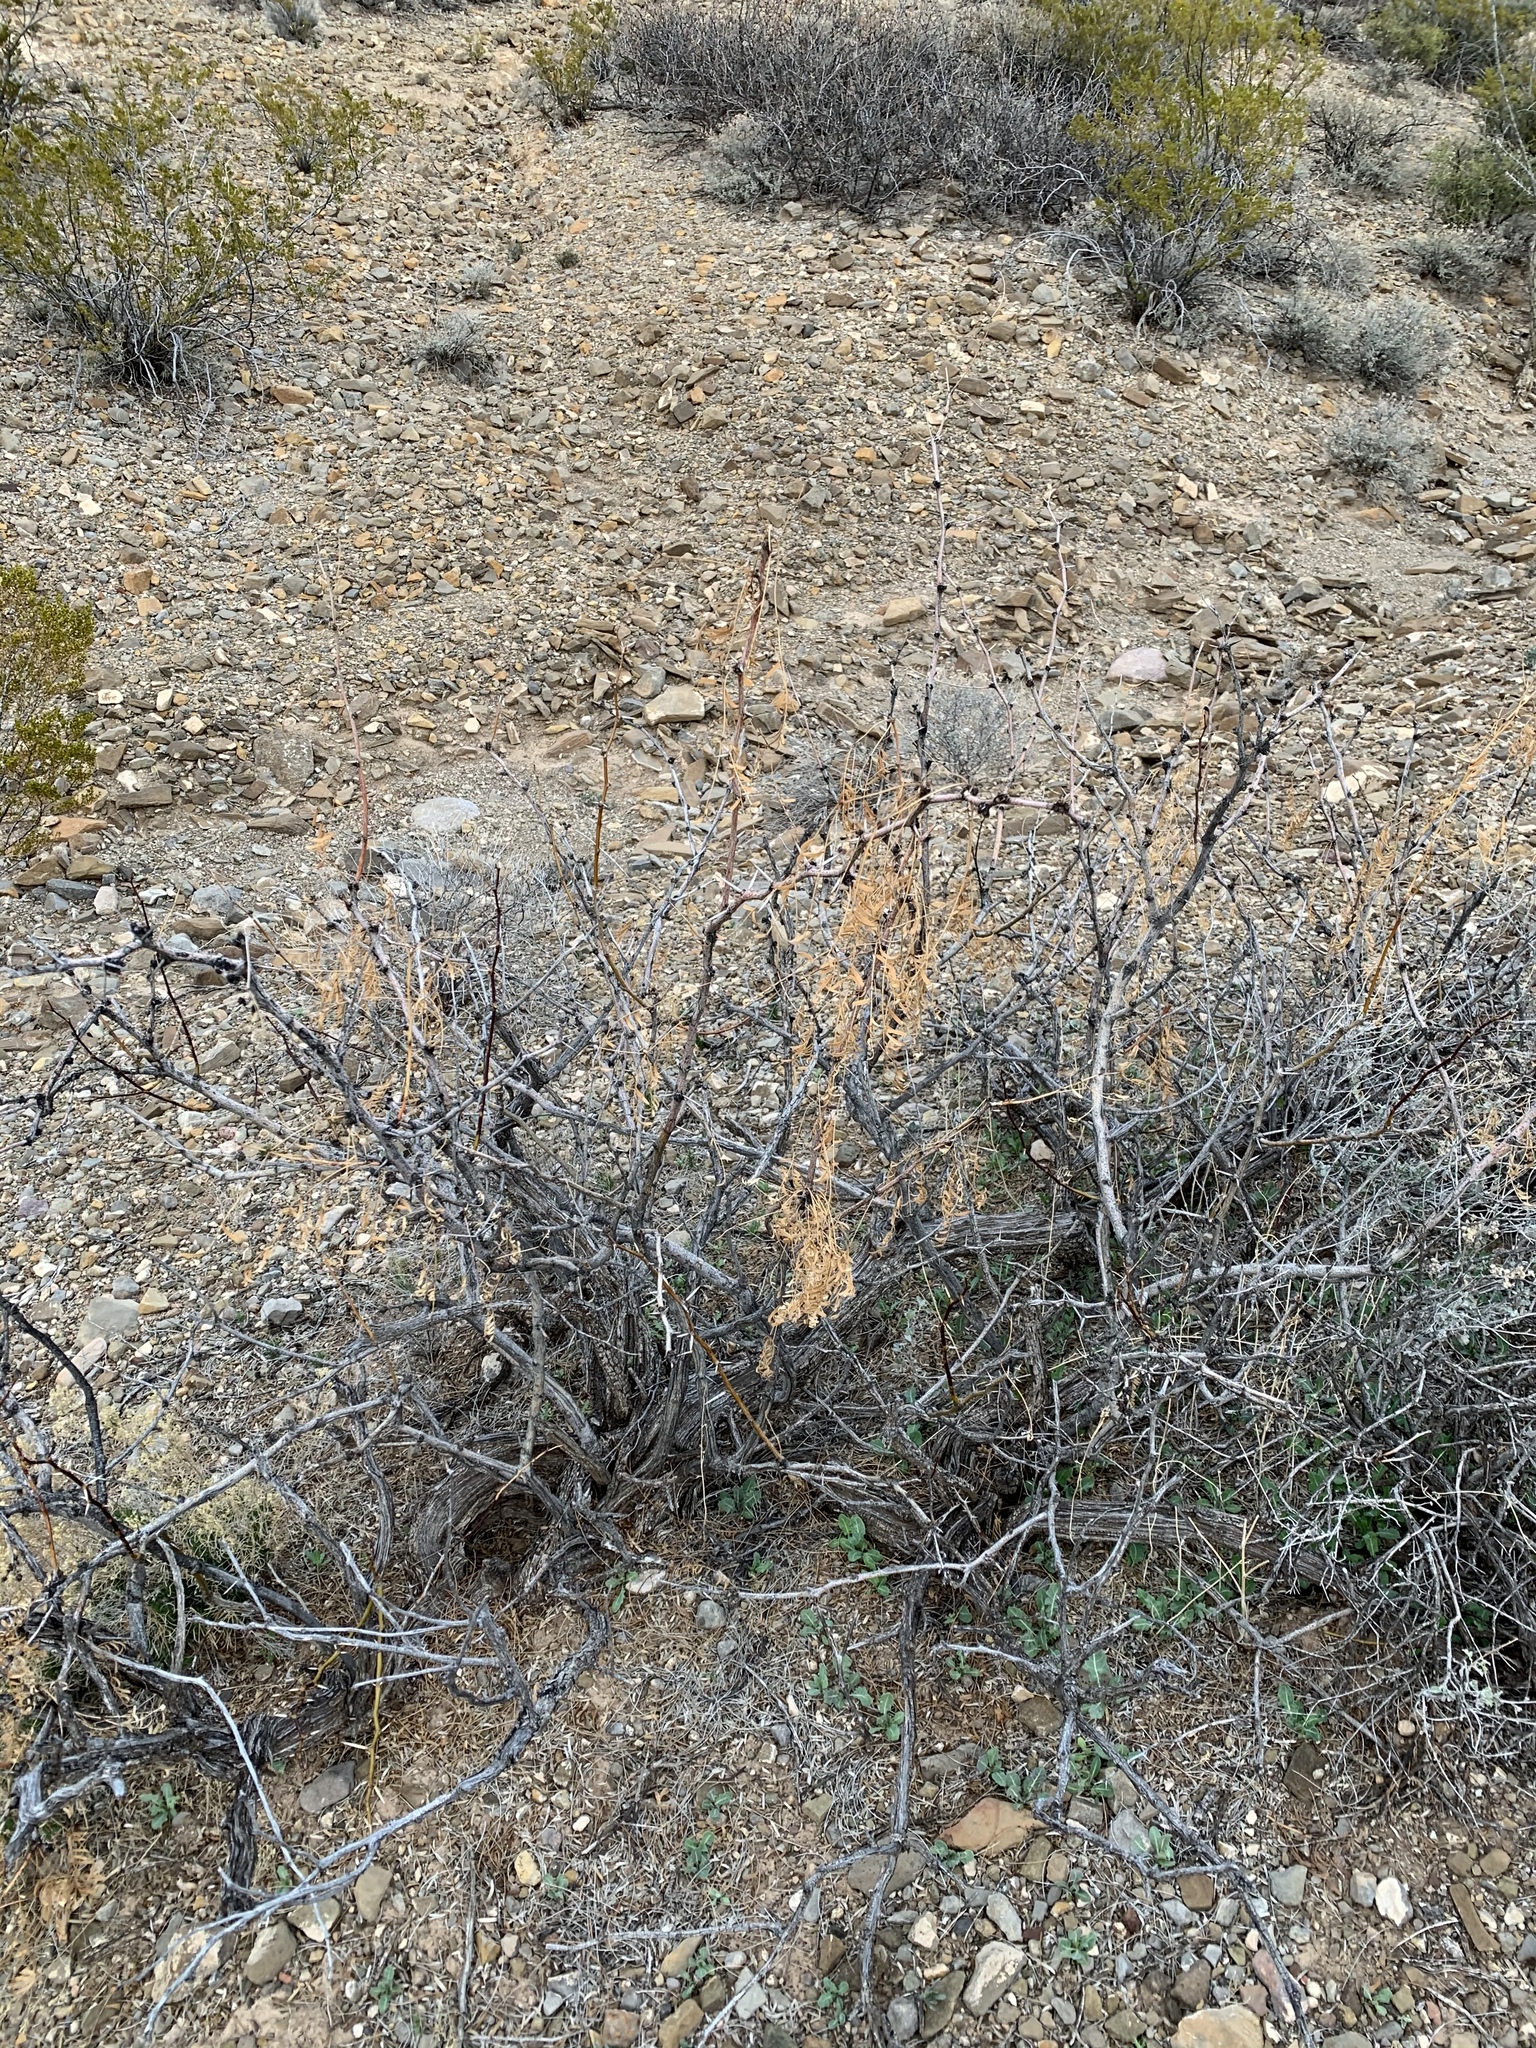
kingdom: Plantae
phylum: Tracheophyta
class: Magnoliopsida
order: Fabales
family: Fabaceae
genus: Prosopis
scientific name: Prosopis glandulosa
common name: Honey mesquite
